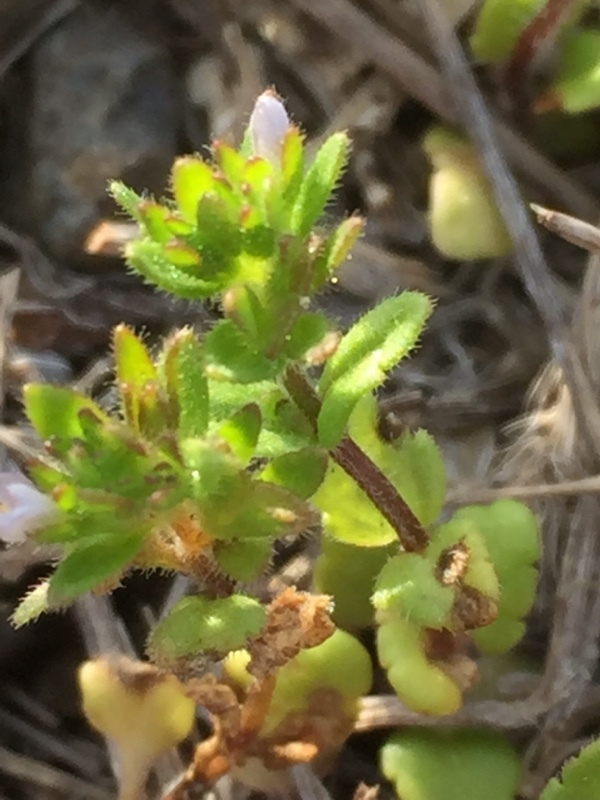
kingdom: Plantae
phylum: Tracheophyta
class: Magnoliopsida
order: Lamiales
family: Plantaginaceae
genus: Veronica
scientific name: Veronica arvensis
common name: Corn speedwell
